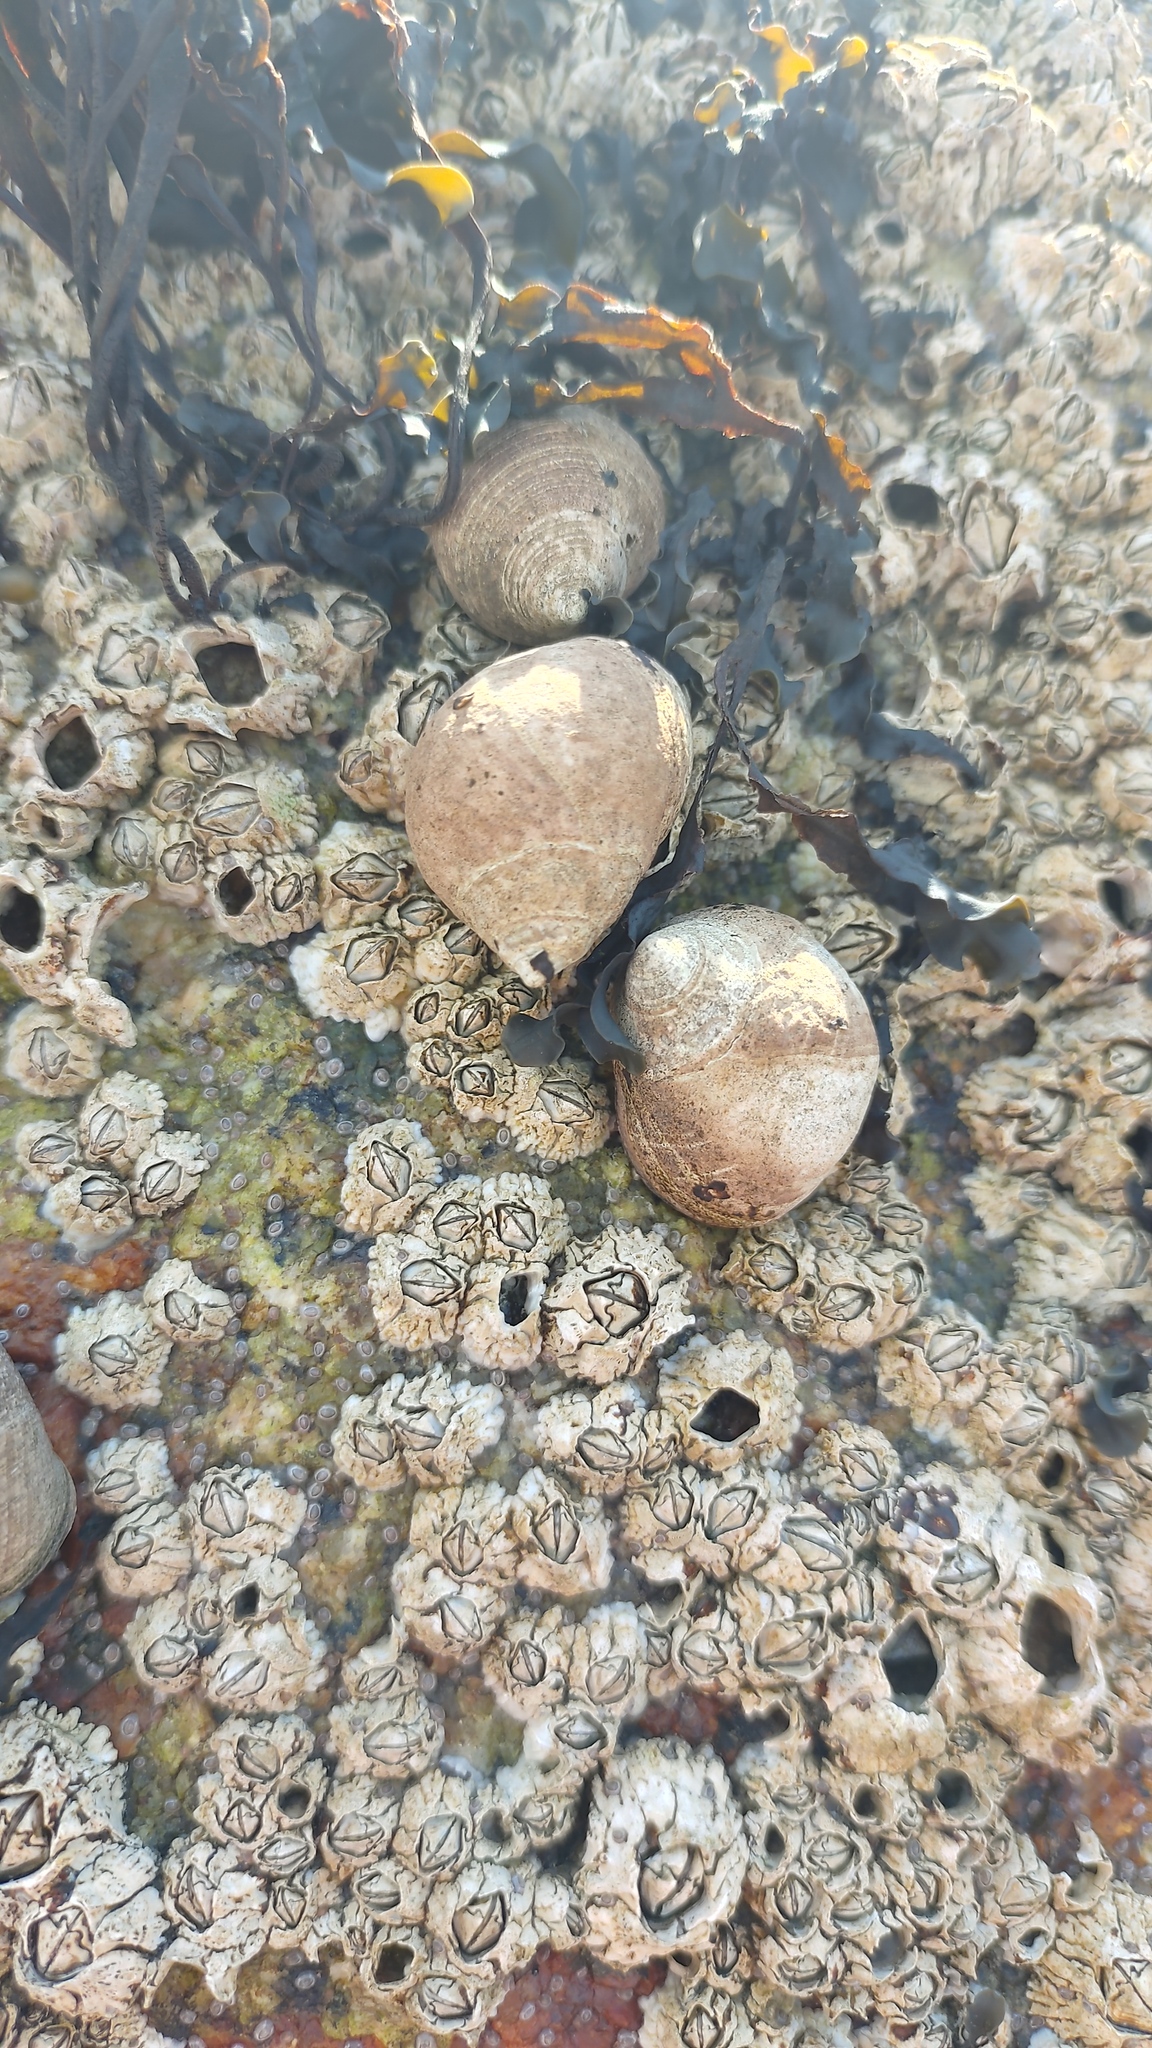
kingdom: Animalia
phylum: Mollusca
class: Gastropoda
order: Littorinimorpha
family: Littorinidae
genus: Littorina
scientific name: Littorina littorea
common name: Common periwinkle
